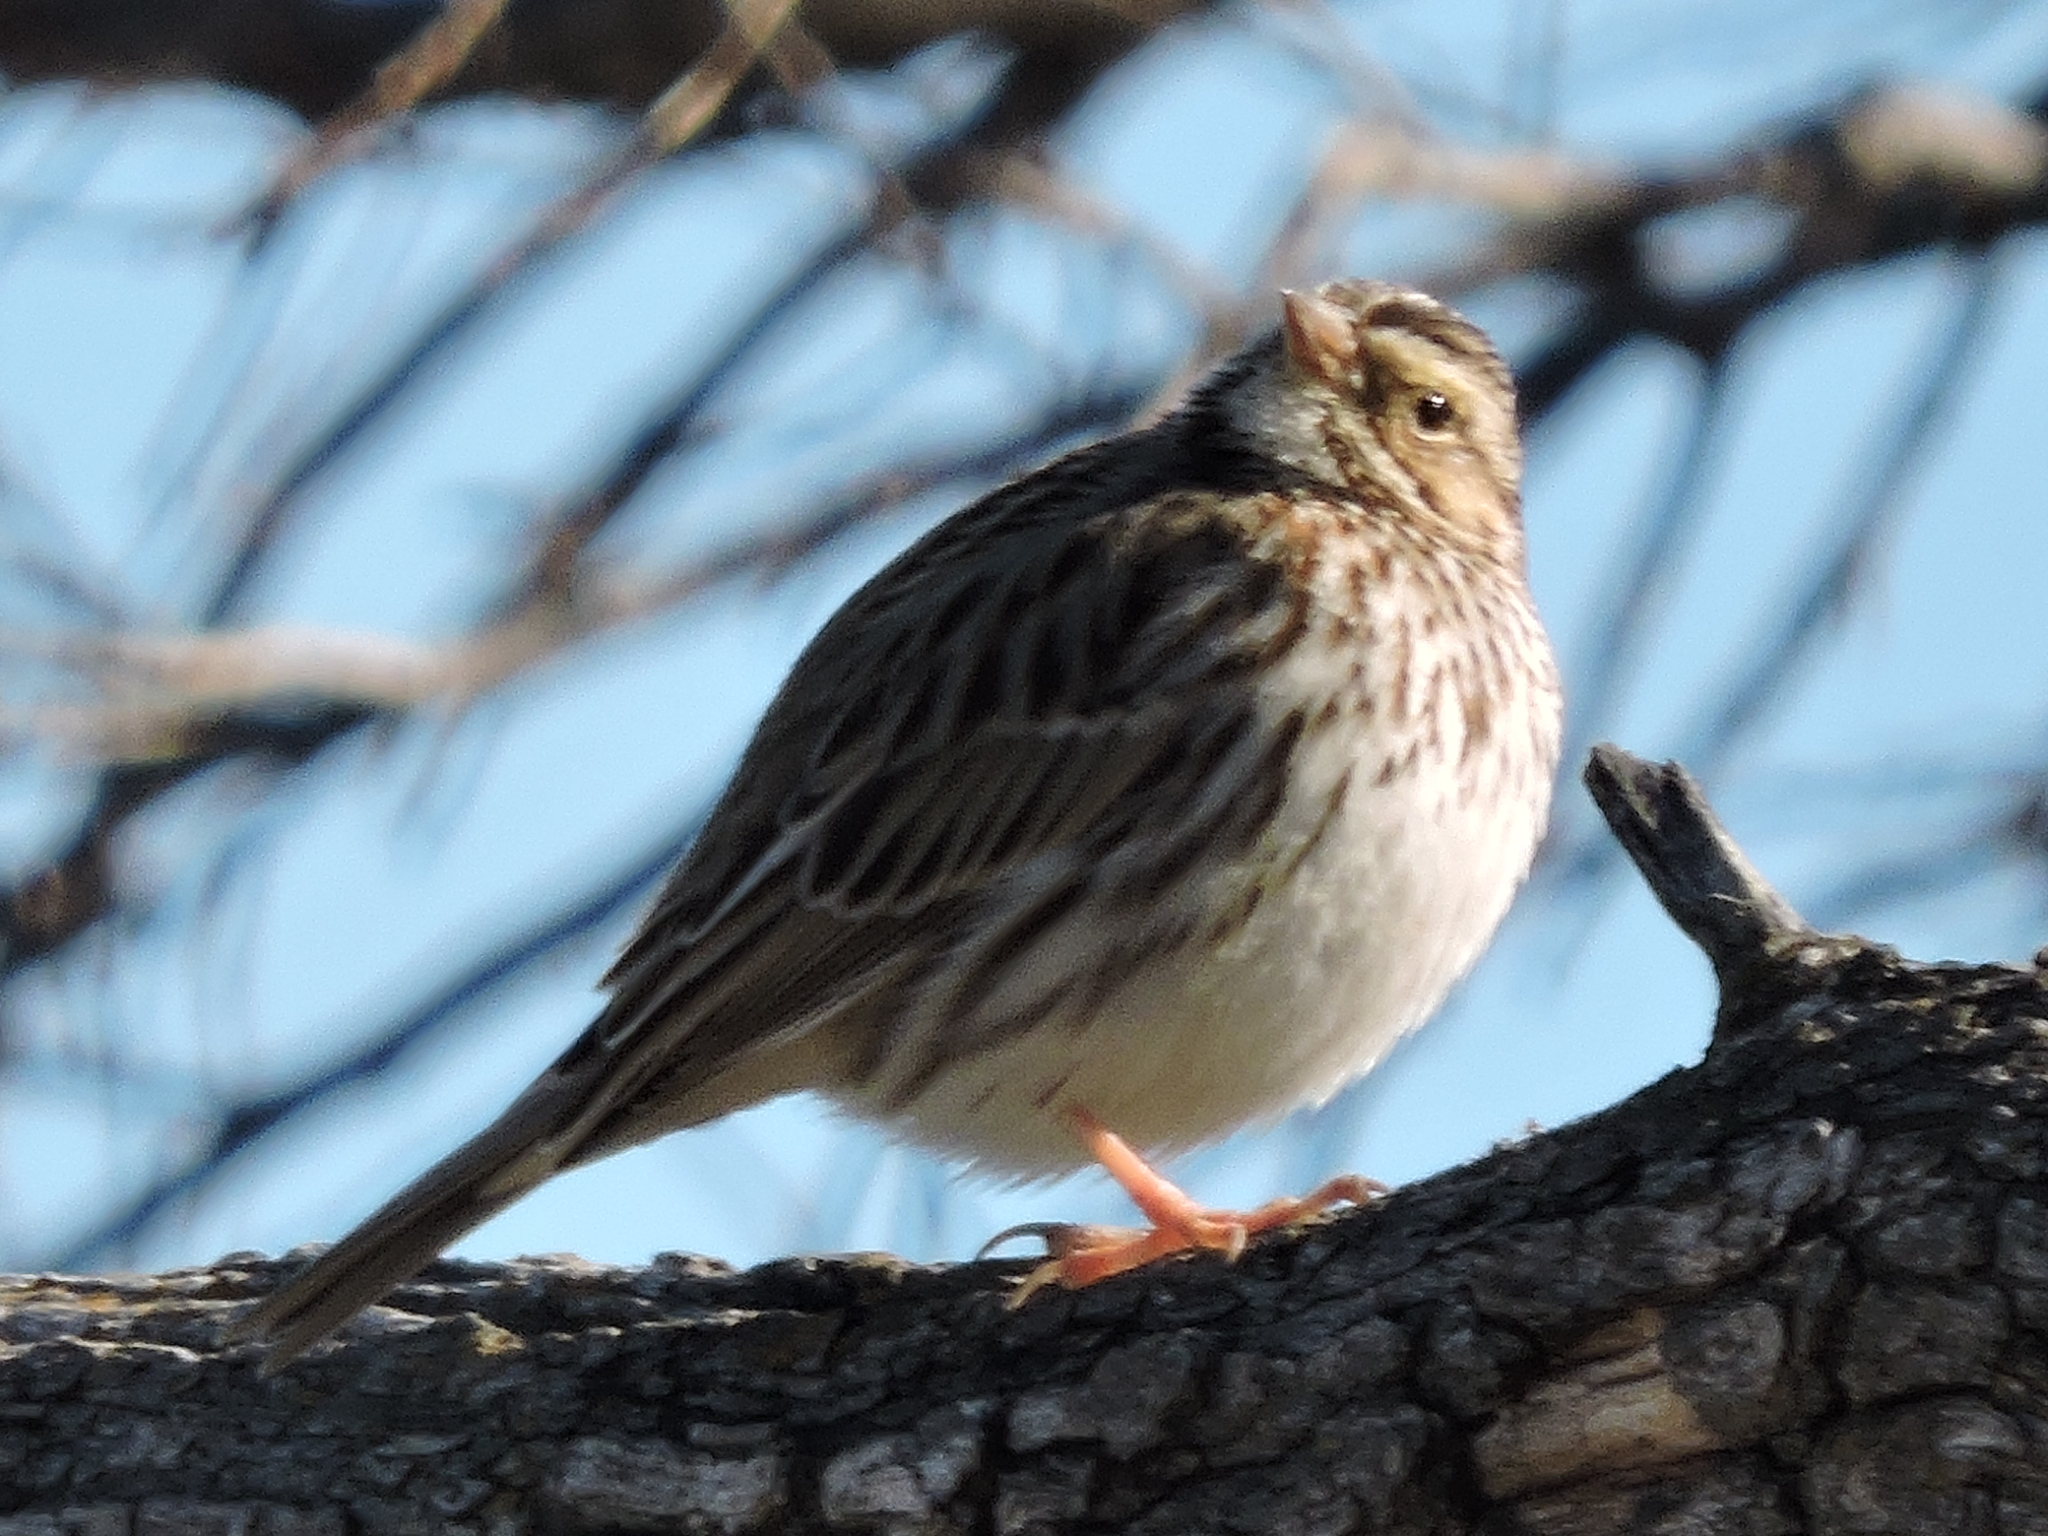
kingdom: Animalia
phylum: Chordata
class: Aves
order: Passeriformes
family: Passerellidae
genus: Passerculus
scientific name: Passerculus sandwichensis
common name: Savannah sparrow
